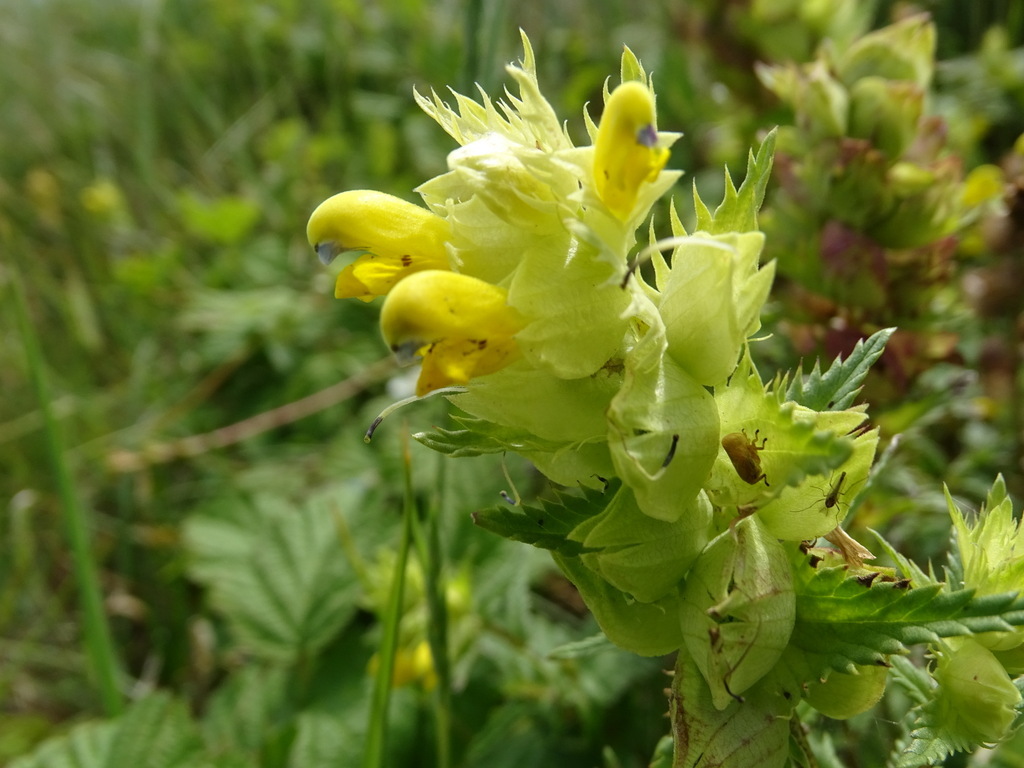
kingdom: Plantae
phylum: Tracheophyta
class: Magnoliopsida
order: Lamiales
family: Orobanchaceae
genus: Rhinanthus
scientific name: Rhinanthus alectorolophus
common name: Greater yellow-rattle
